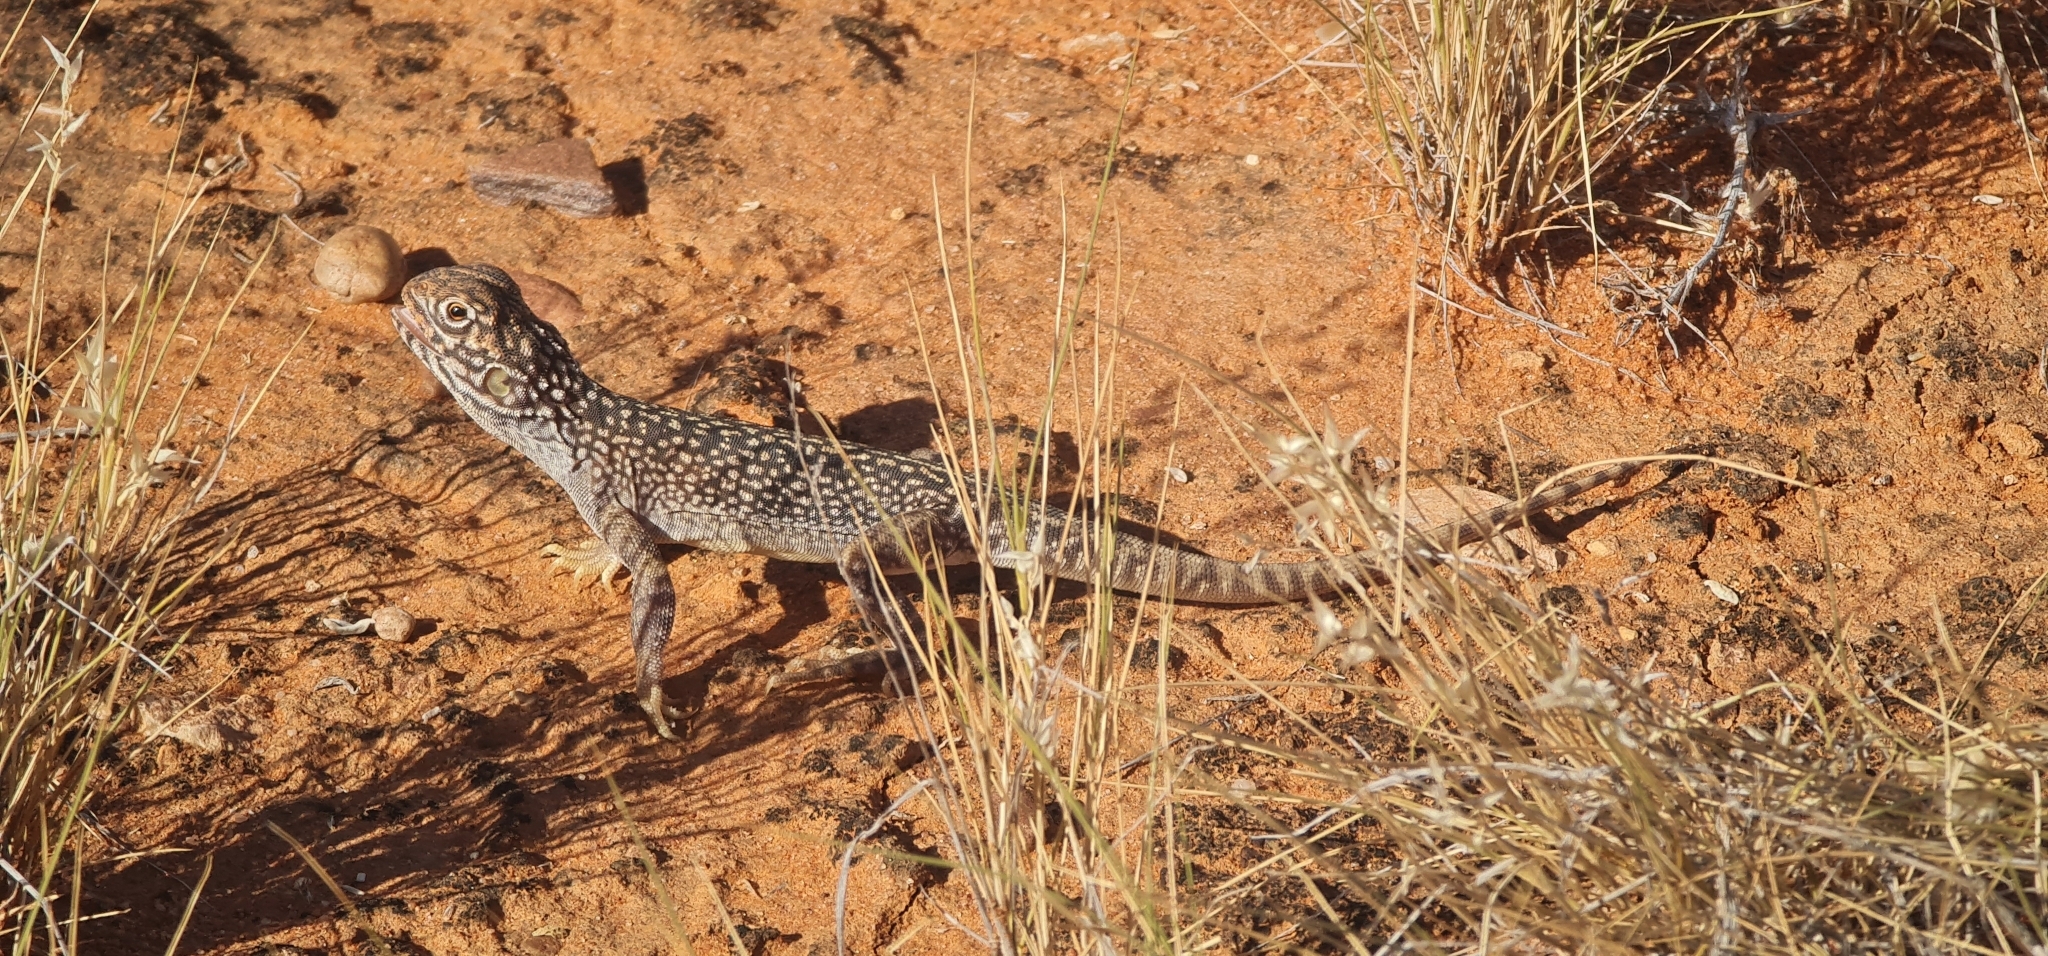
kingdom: Animalia
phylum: Chordata
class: Squamata
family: Agamidae
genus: Ctenophorus
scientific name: Ctenophorus nuchalis
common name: Central netted dragon
